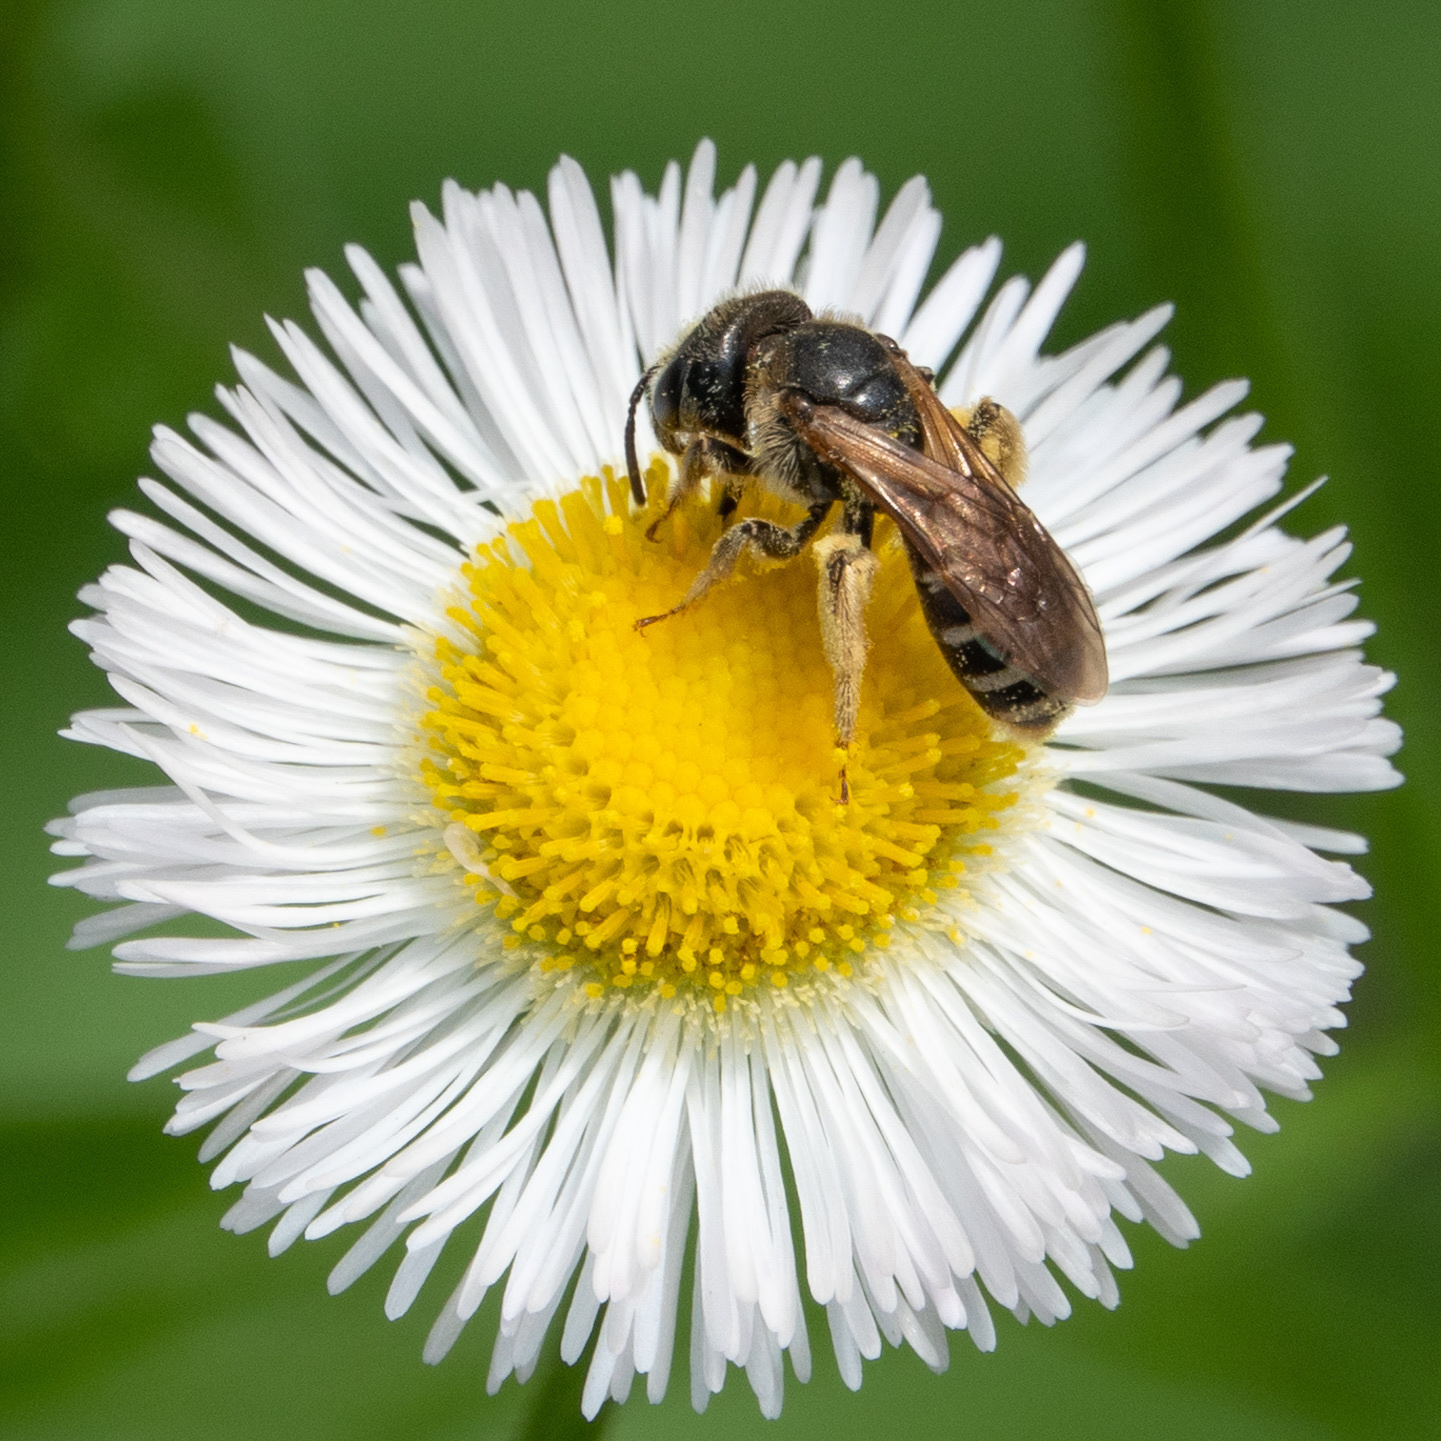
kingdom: Animalia
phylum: Arthropoda
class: Insecta
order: Hymenoptera
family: Halictidae
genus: Halictus
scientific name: Halictus ligatus
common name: Ligated furrow bee
